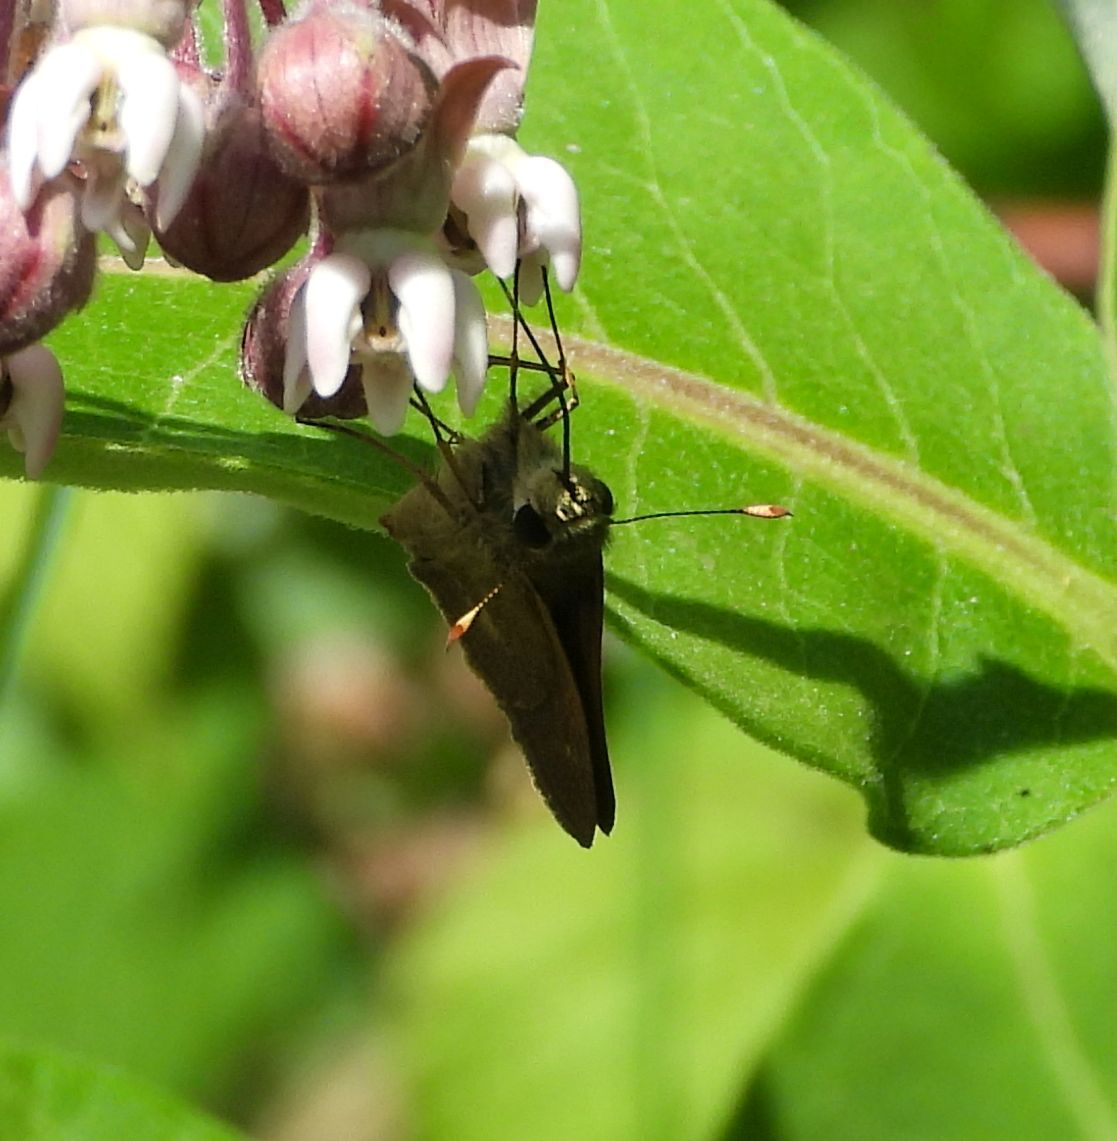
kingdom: Animalia
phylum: Arthropoda
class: Insecta
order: Lepidoptera
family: Hesperiidae
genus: Euphyes
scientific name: Euphyes vestris
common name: Dun skipper
